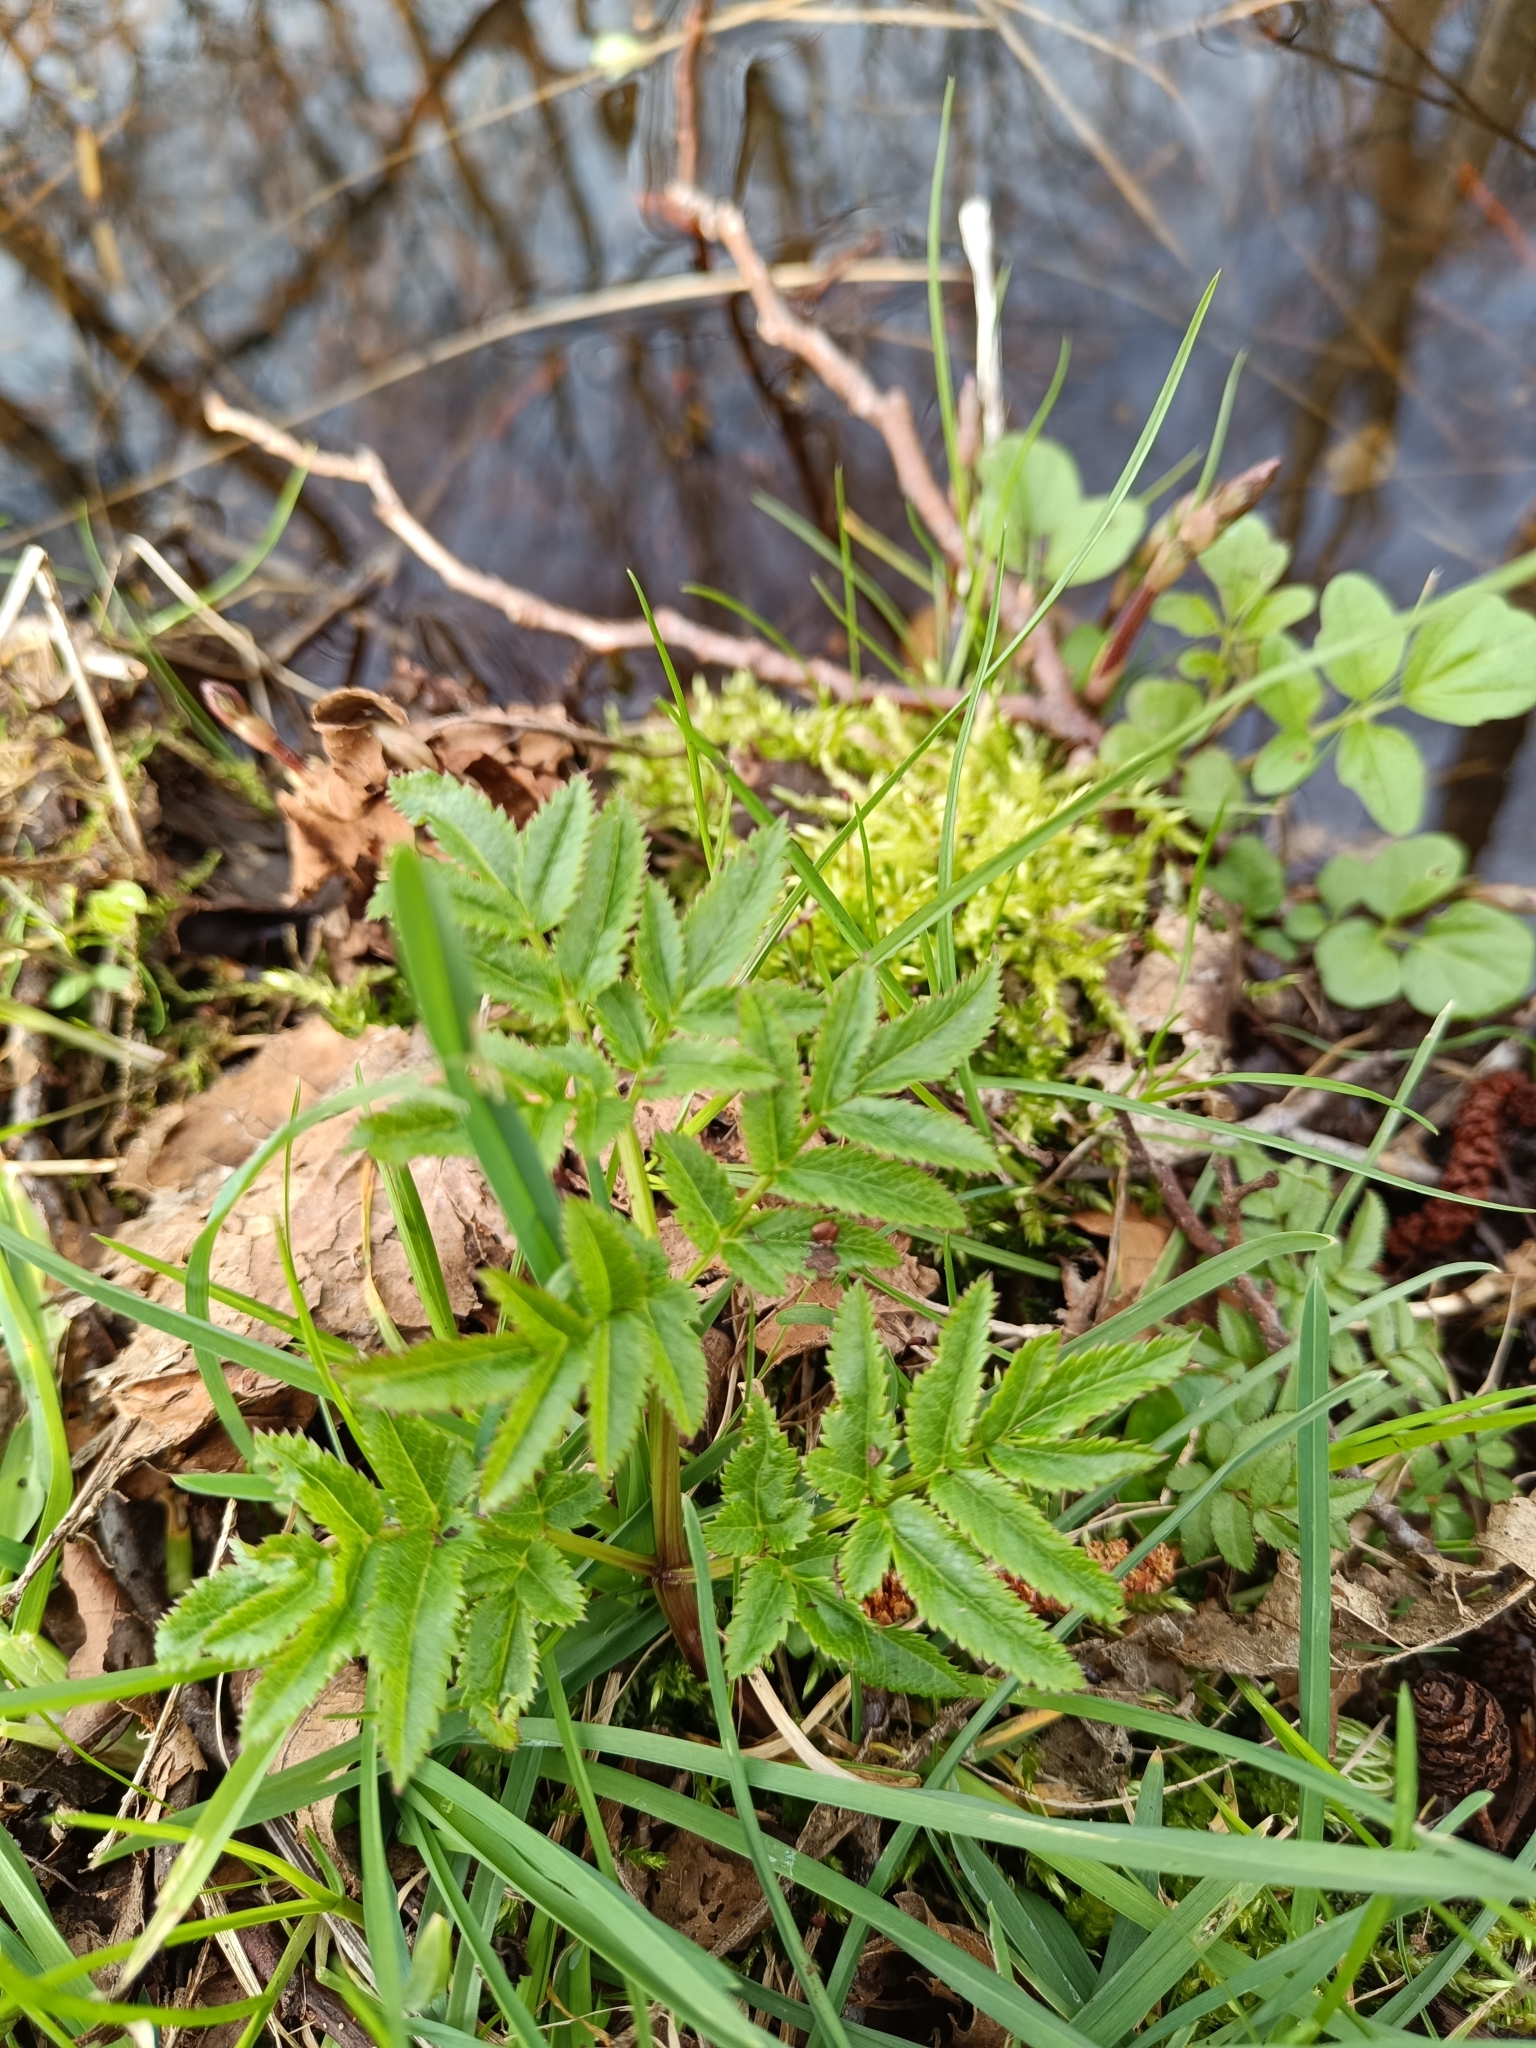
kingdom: Plantae
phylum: Tracheophyta
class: Magnoliopsida
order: Apiales
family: Apiaceae
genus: Angelica
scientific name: Angelica sylvestris
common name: Wild angelica
